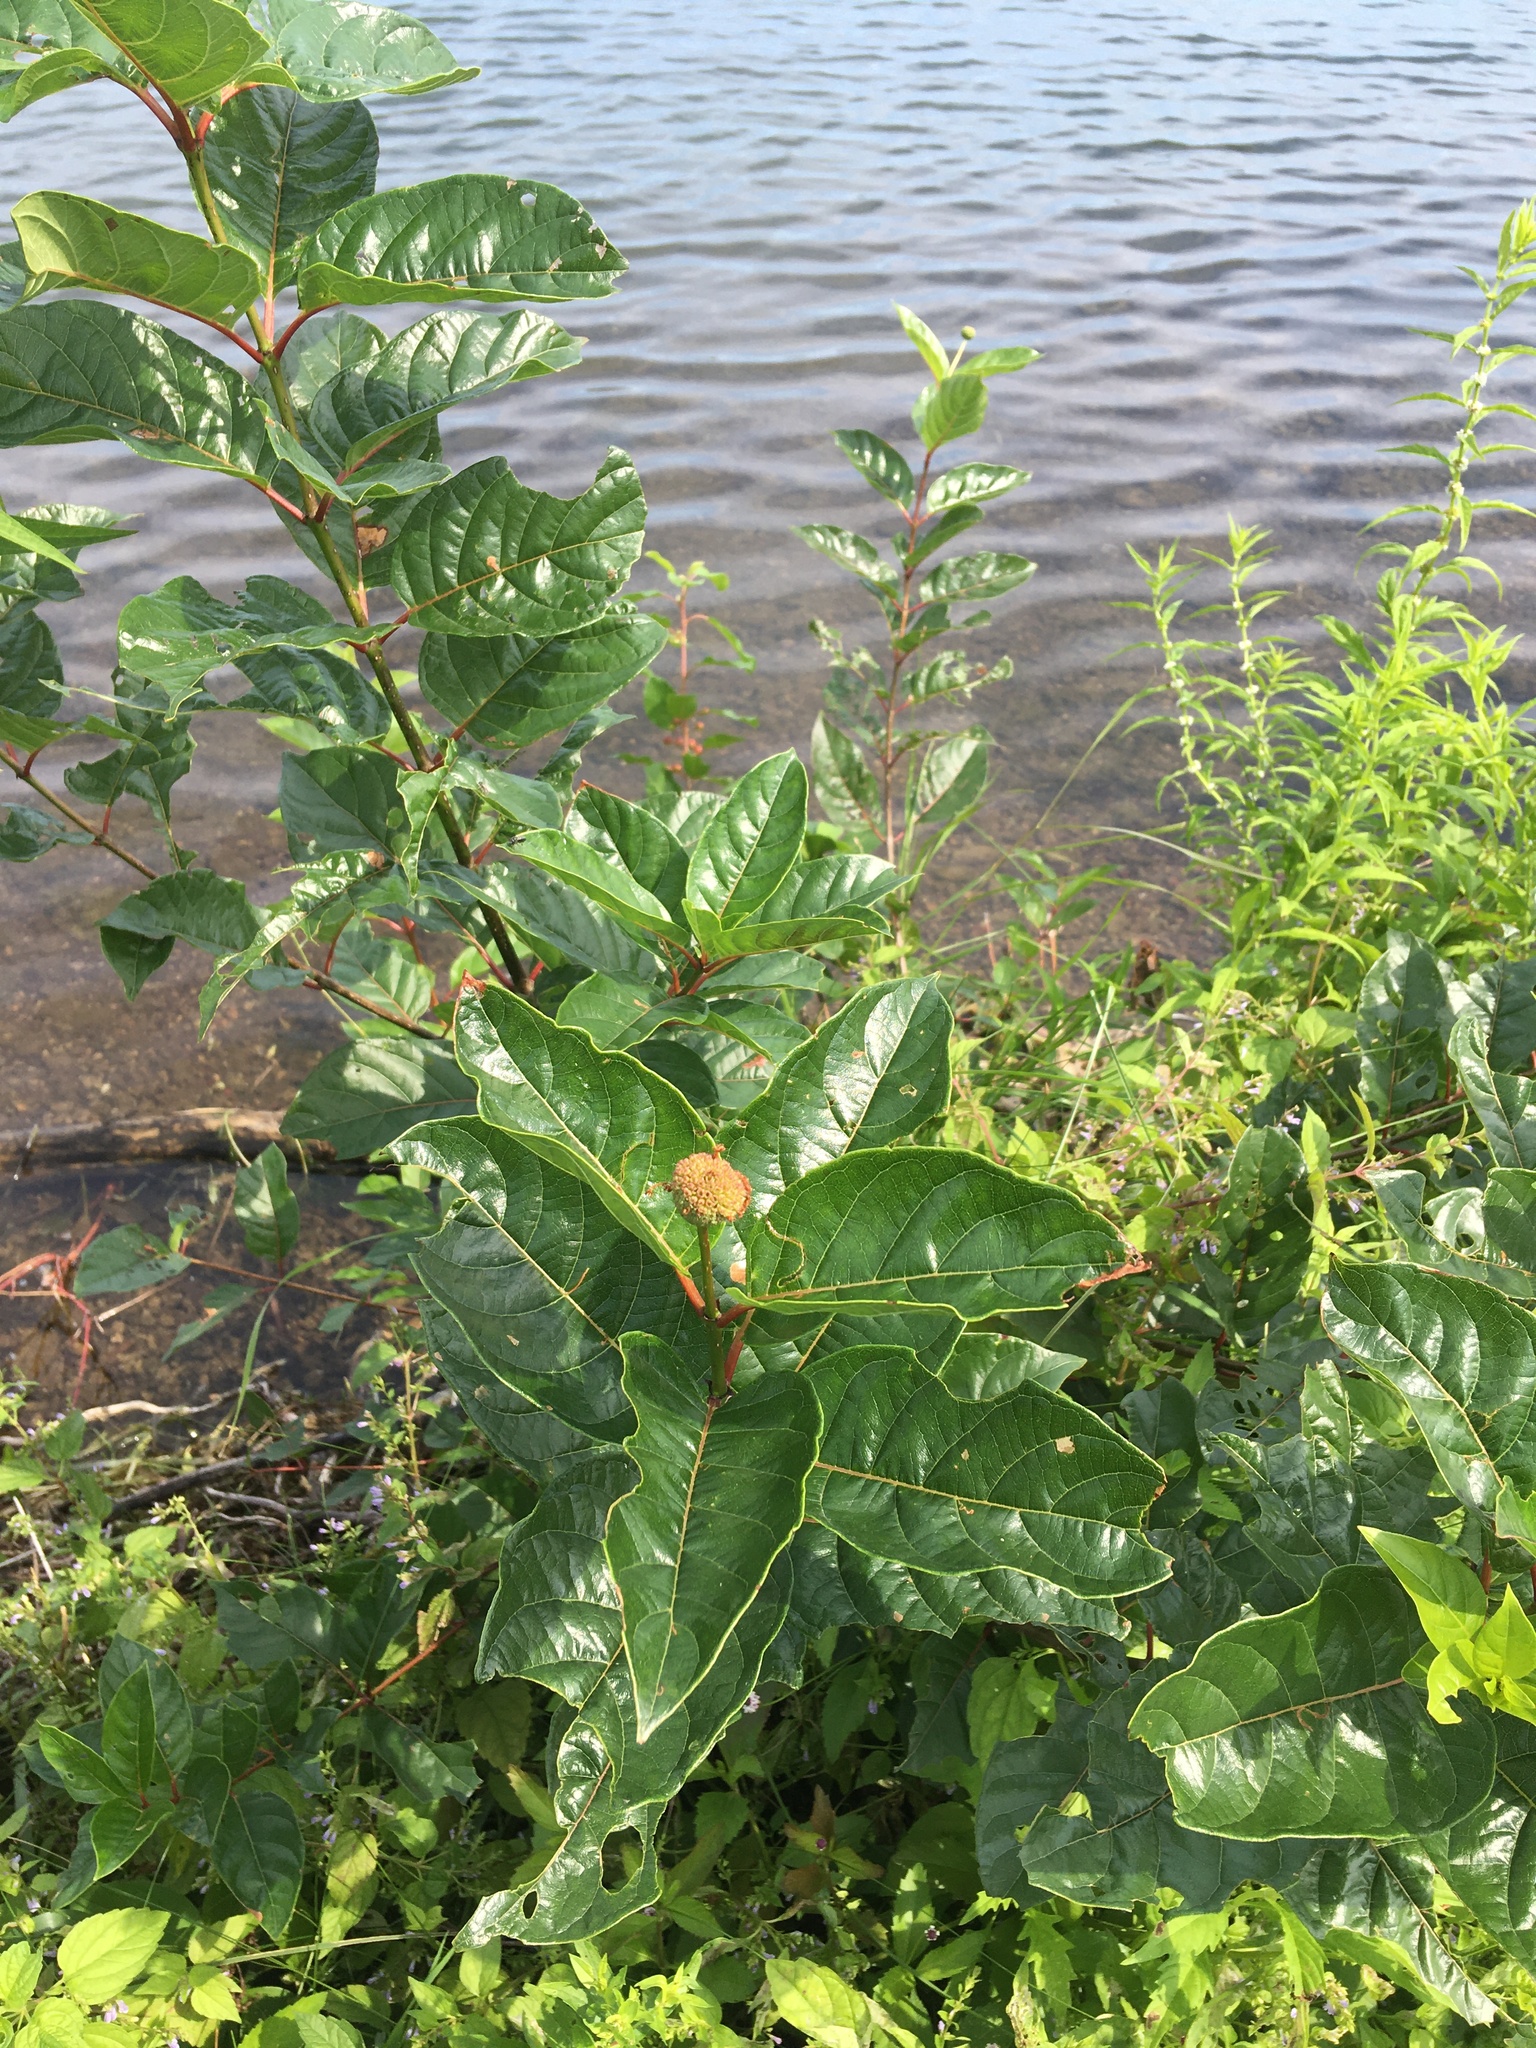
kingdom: Plantae
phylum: Tracheophyta
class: Magnoliopsida
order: Gentianales
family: Rubiaceae
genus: Cephalanthus
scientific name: Cephalanthus occidentalis
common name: Button-willow
